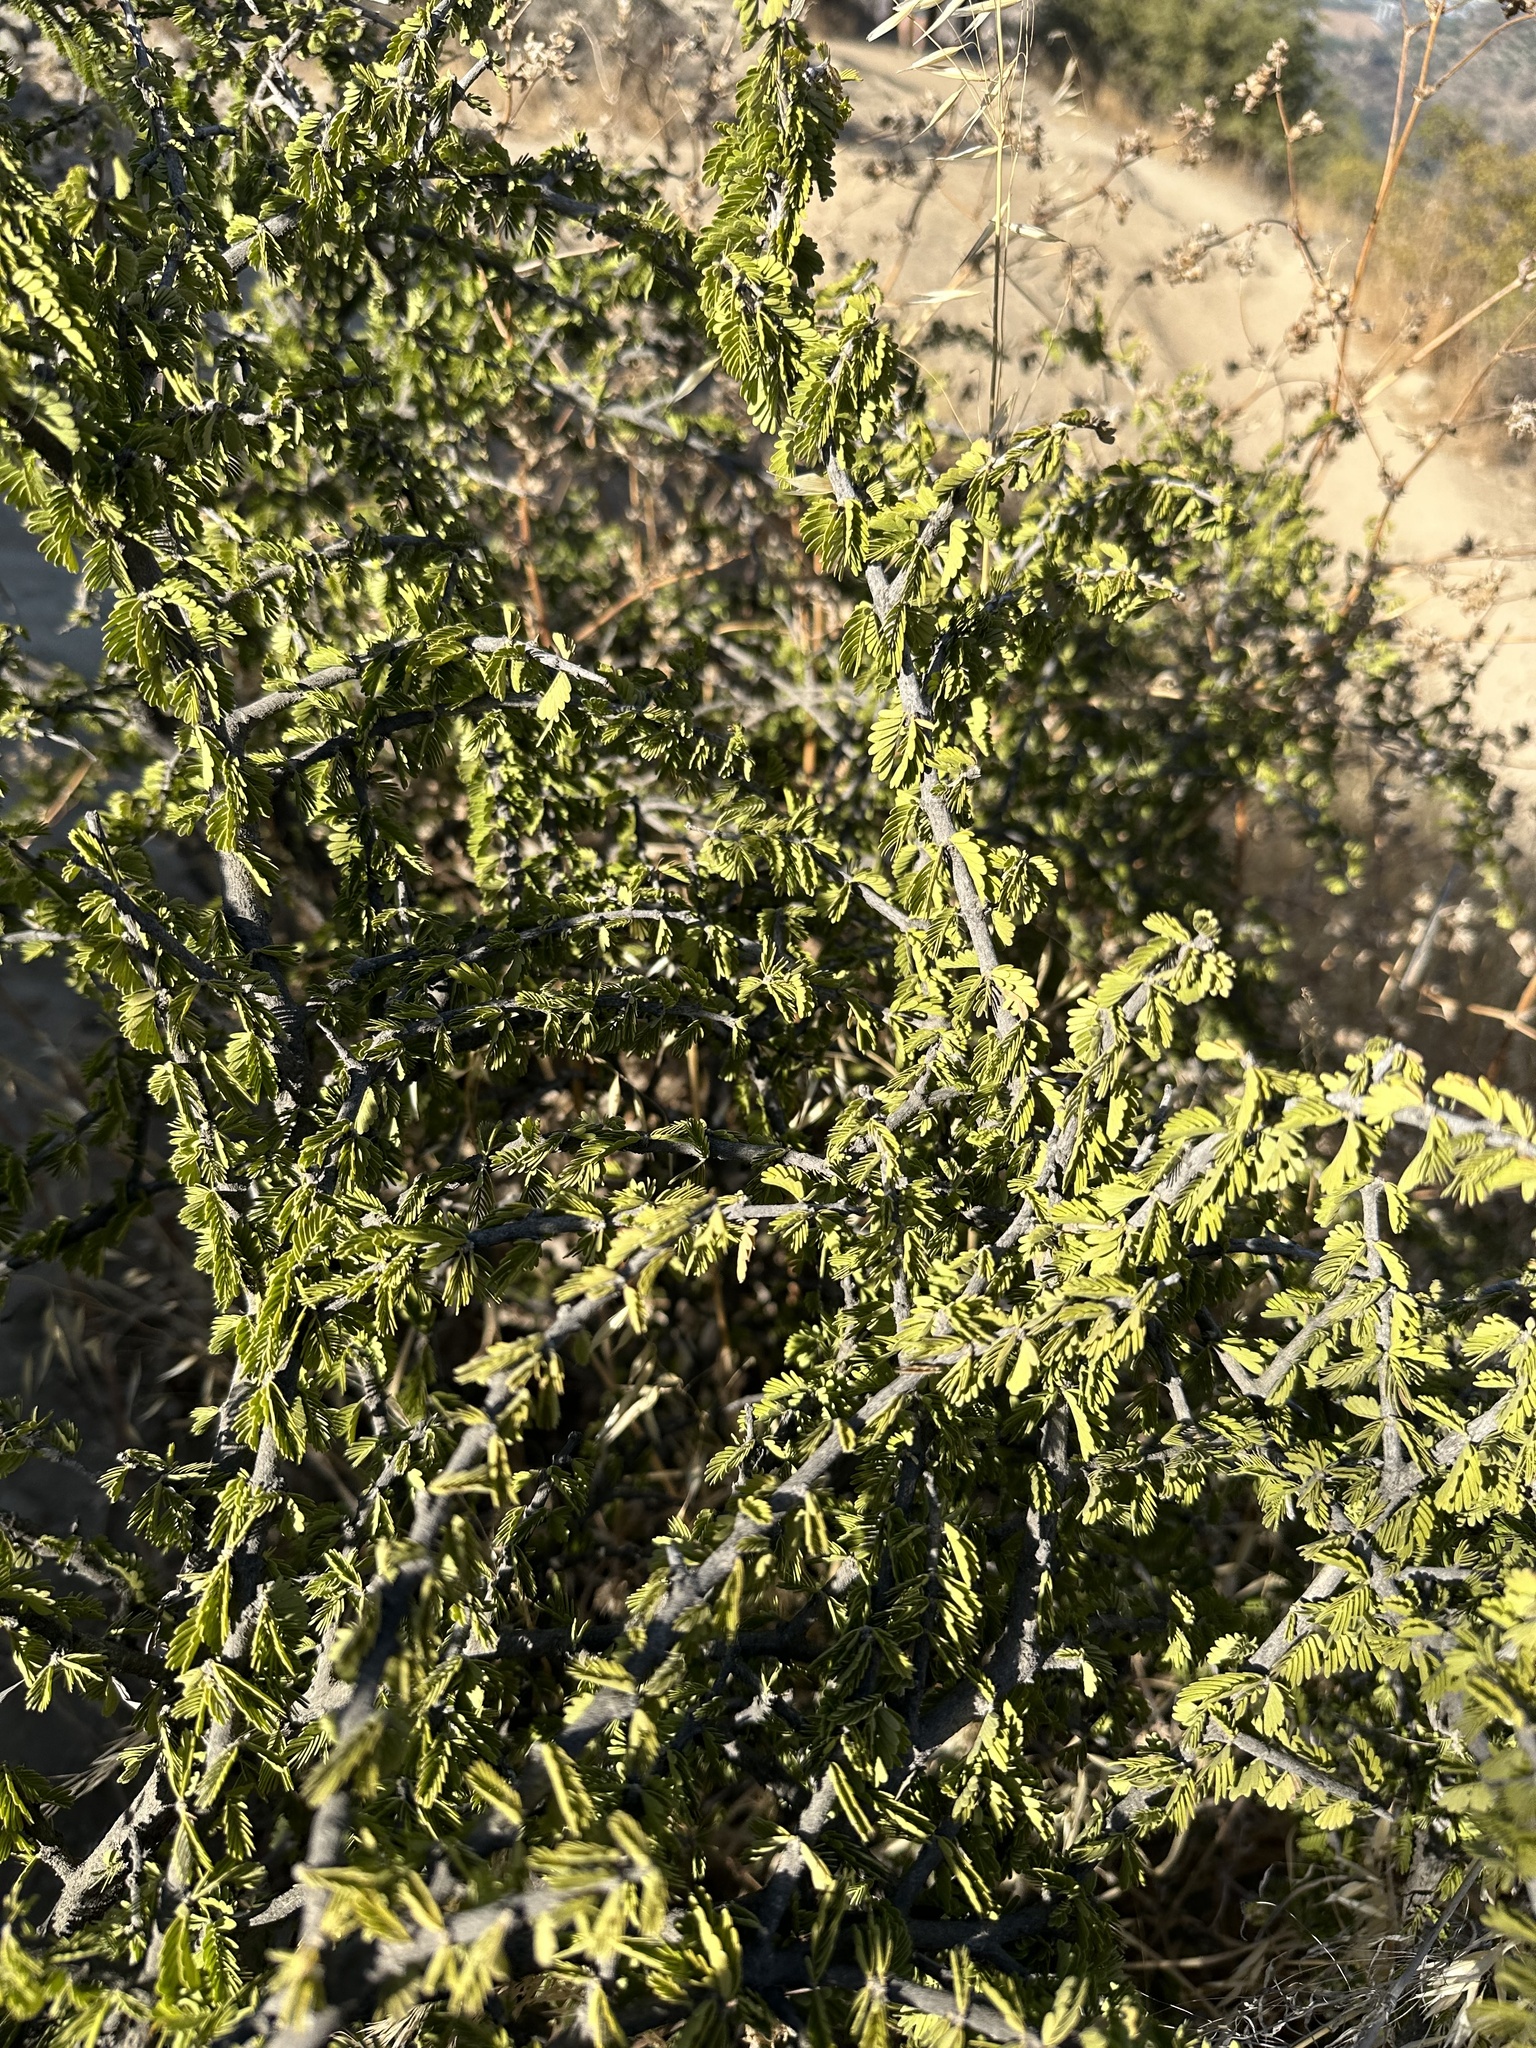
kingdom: Plantae
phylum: Tracheophyta
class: Magnoliopsida
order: Zygophyllales
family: Zygophyllaceae
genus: Porlieria
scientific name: Porlieria chilensis
